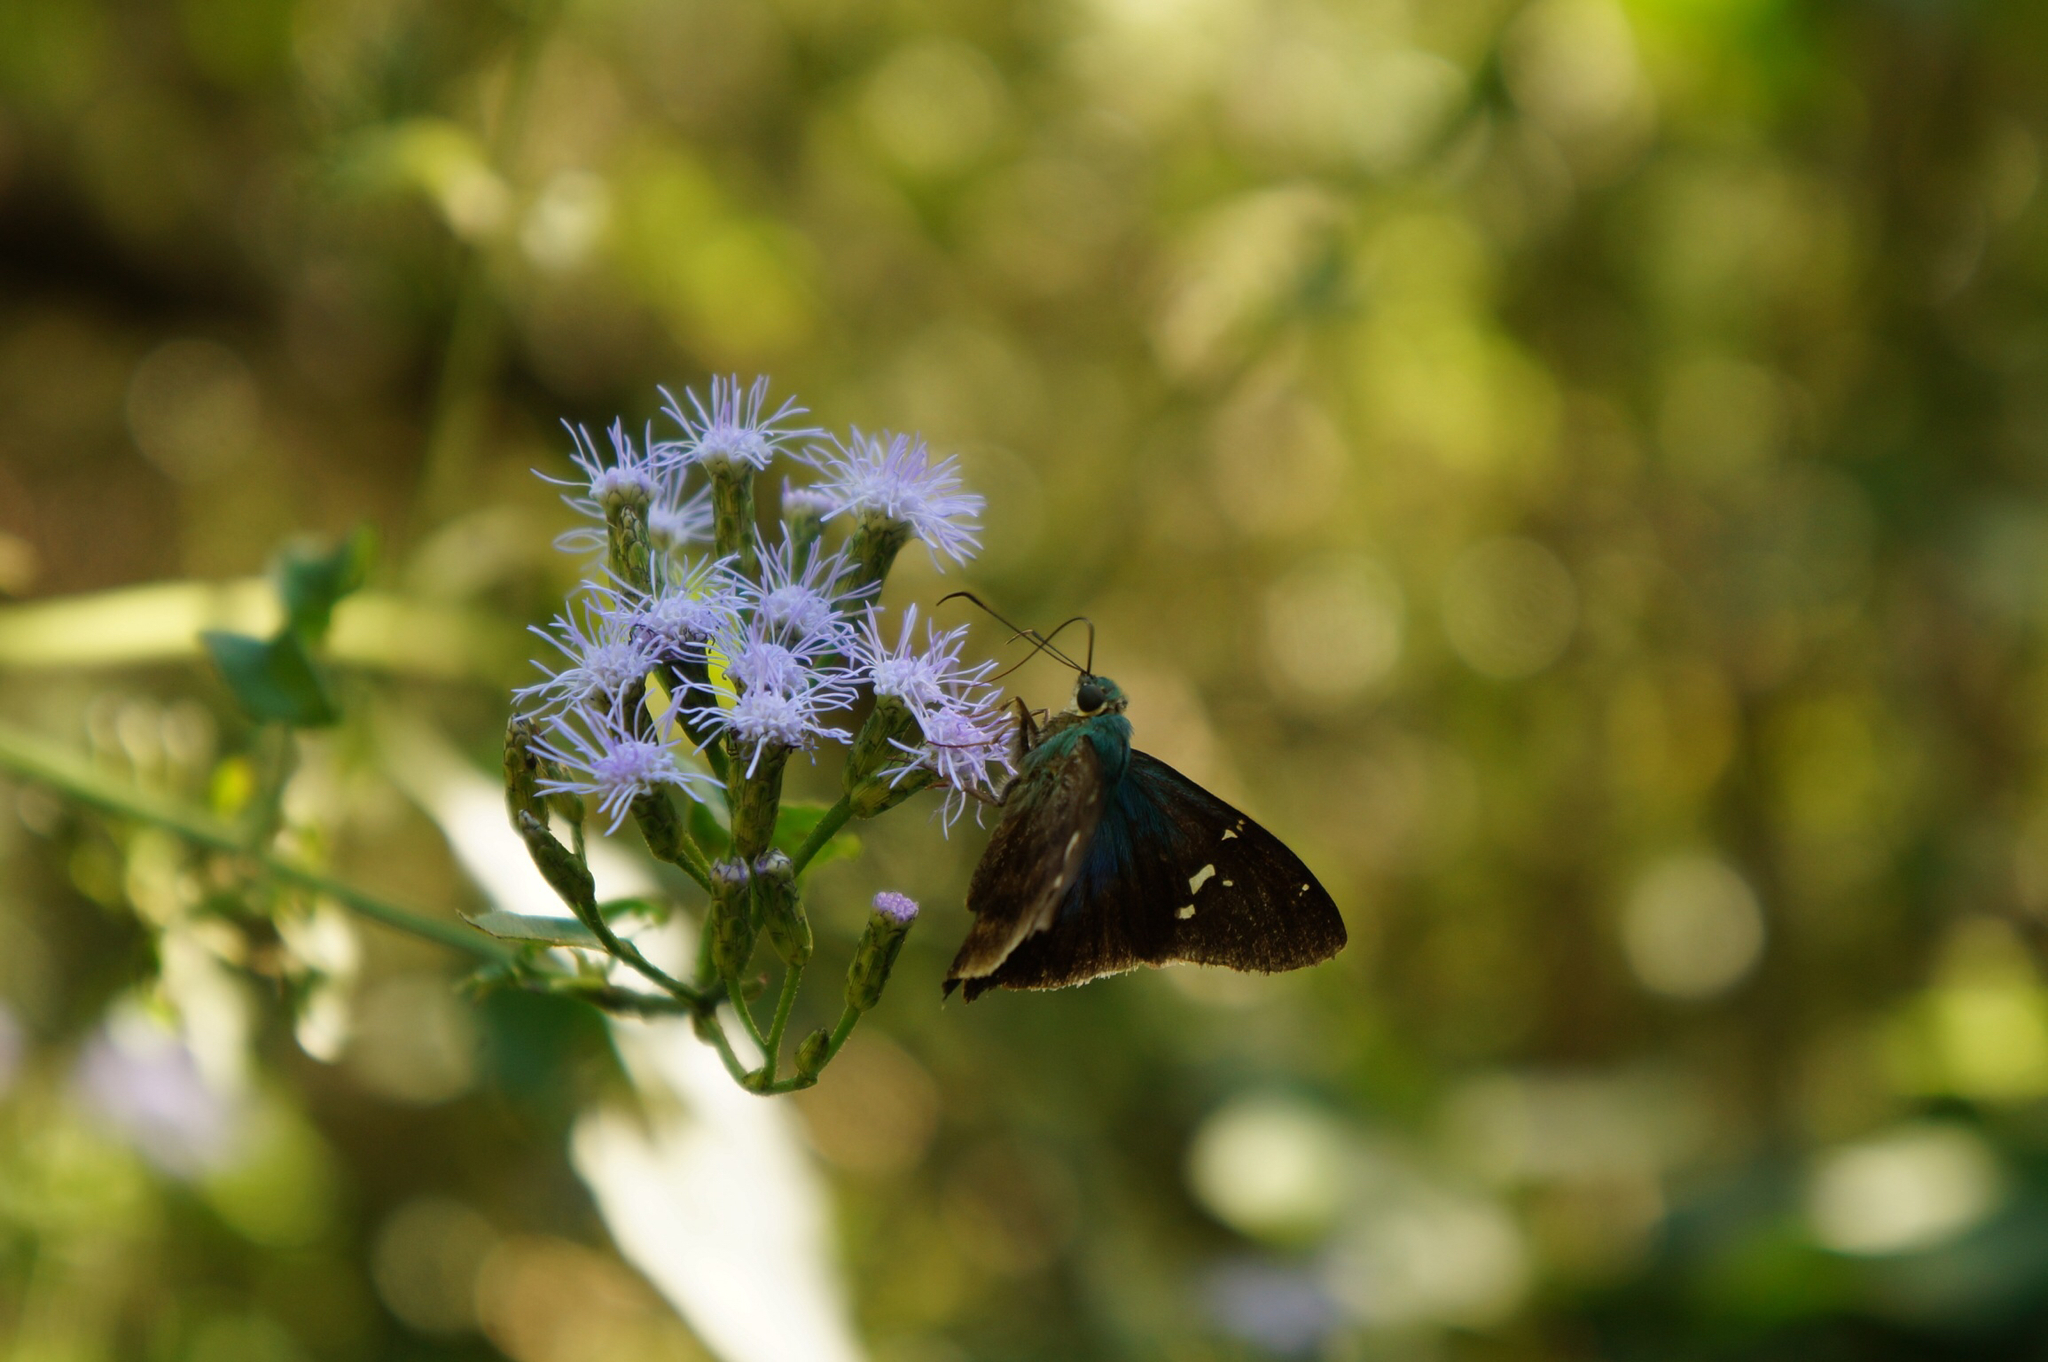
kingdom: Plantae
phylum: Tracheophyta
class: Magnoliopsida
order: Asterales
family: Asteraceae
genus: Chromolaena
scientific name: Chromolaena odorata
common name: Siamweed
